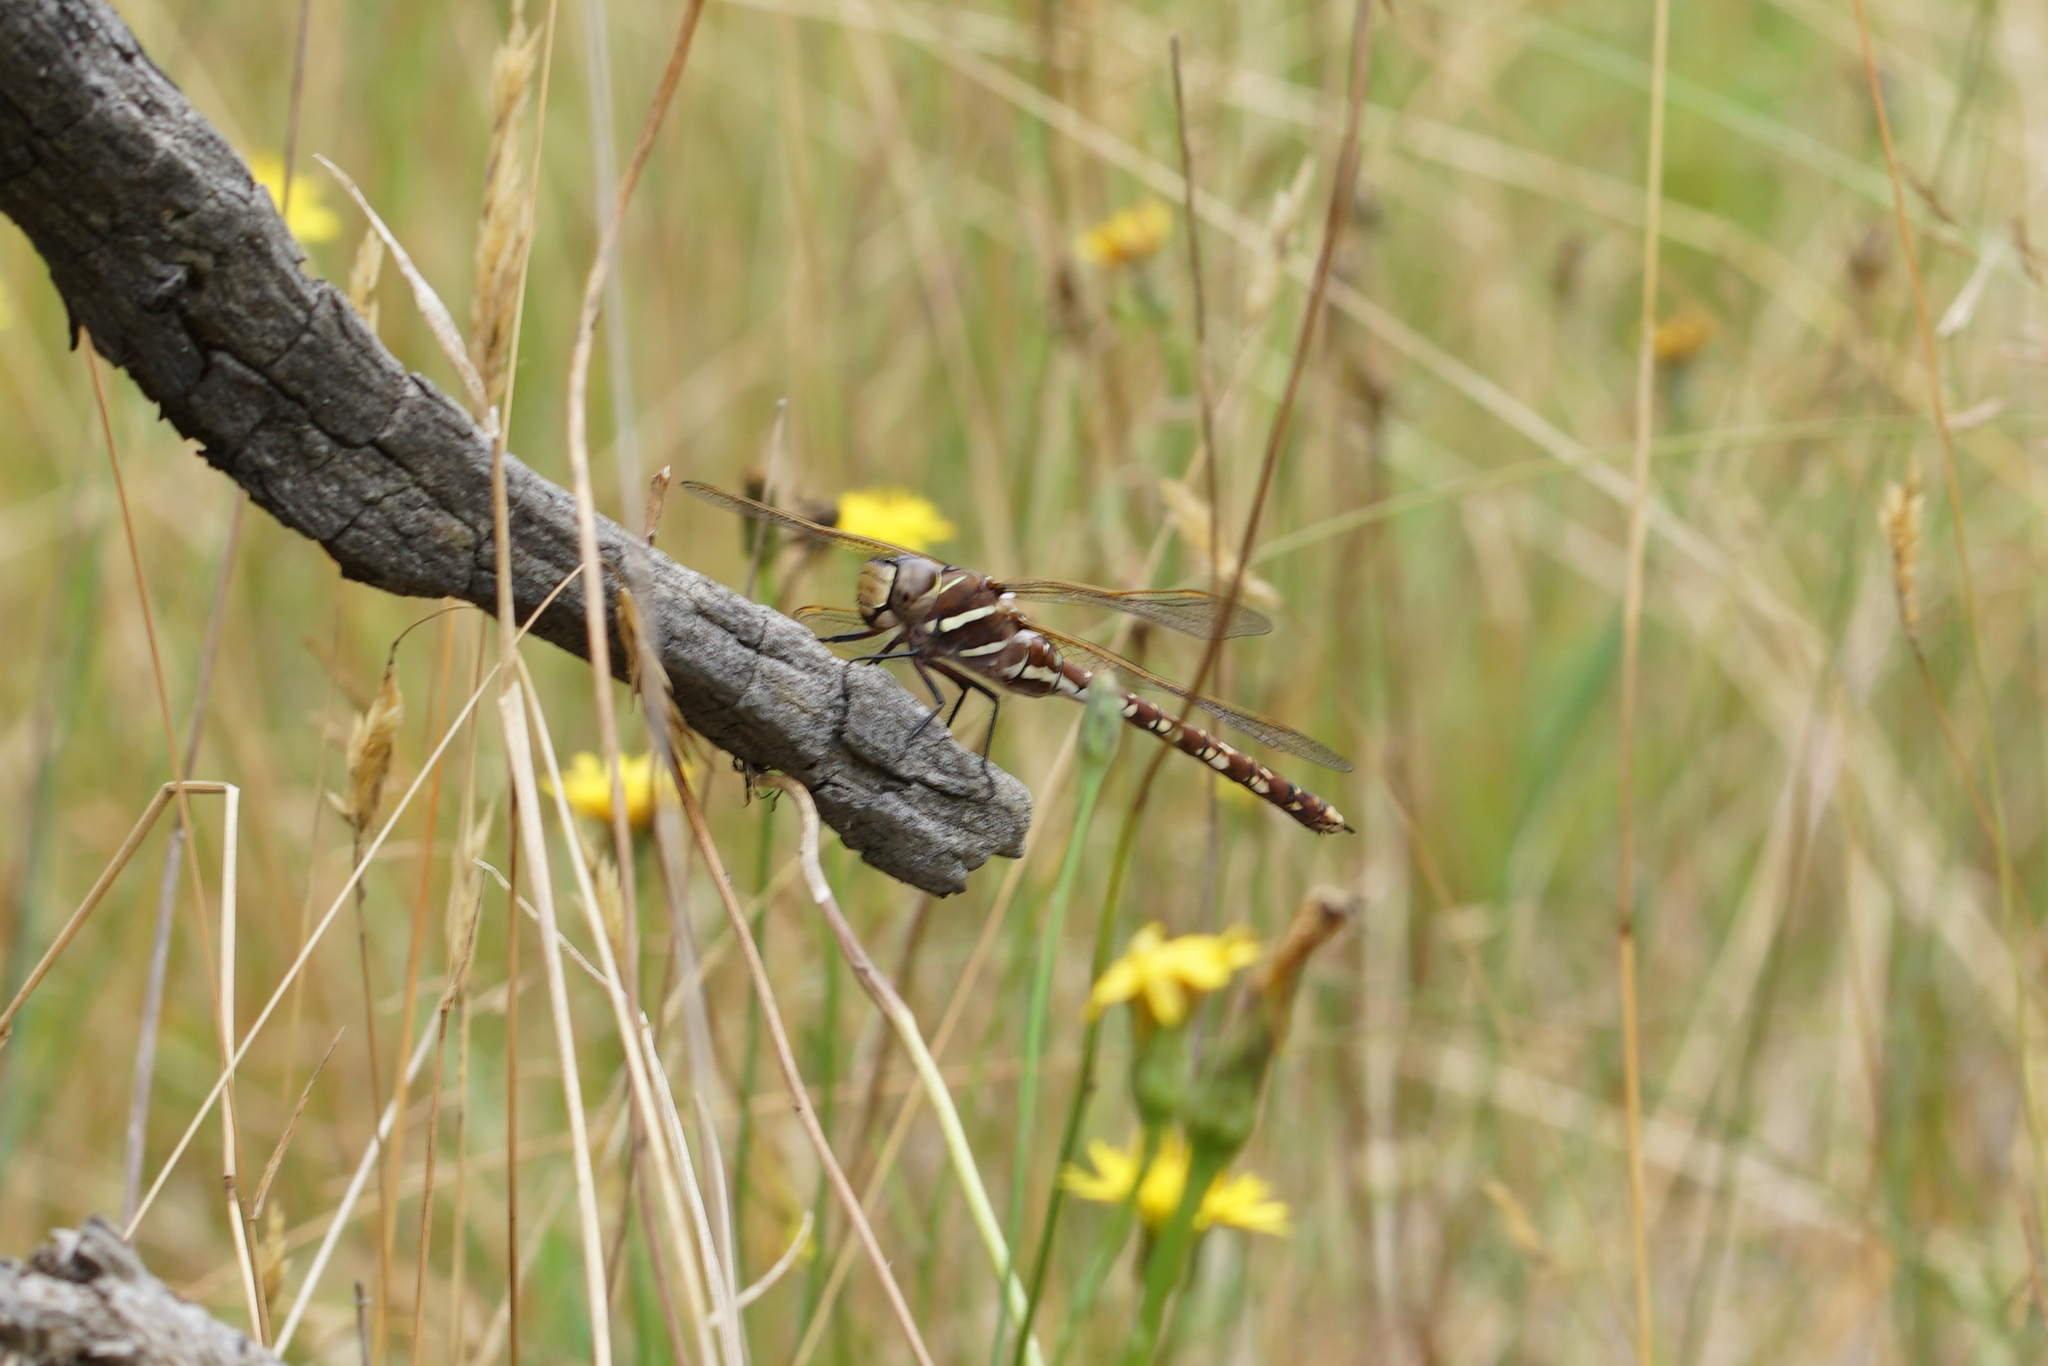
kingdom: Animalia
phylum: Arthropoda
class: Insecta
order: Odonata
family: Aeshnidae
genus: Aeshna
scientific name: Aeshna brevistyla
